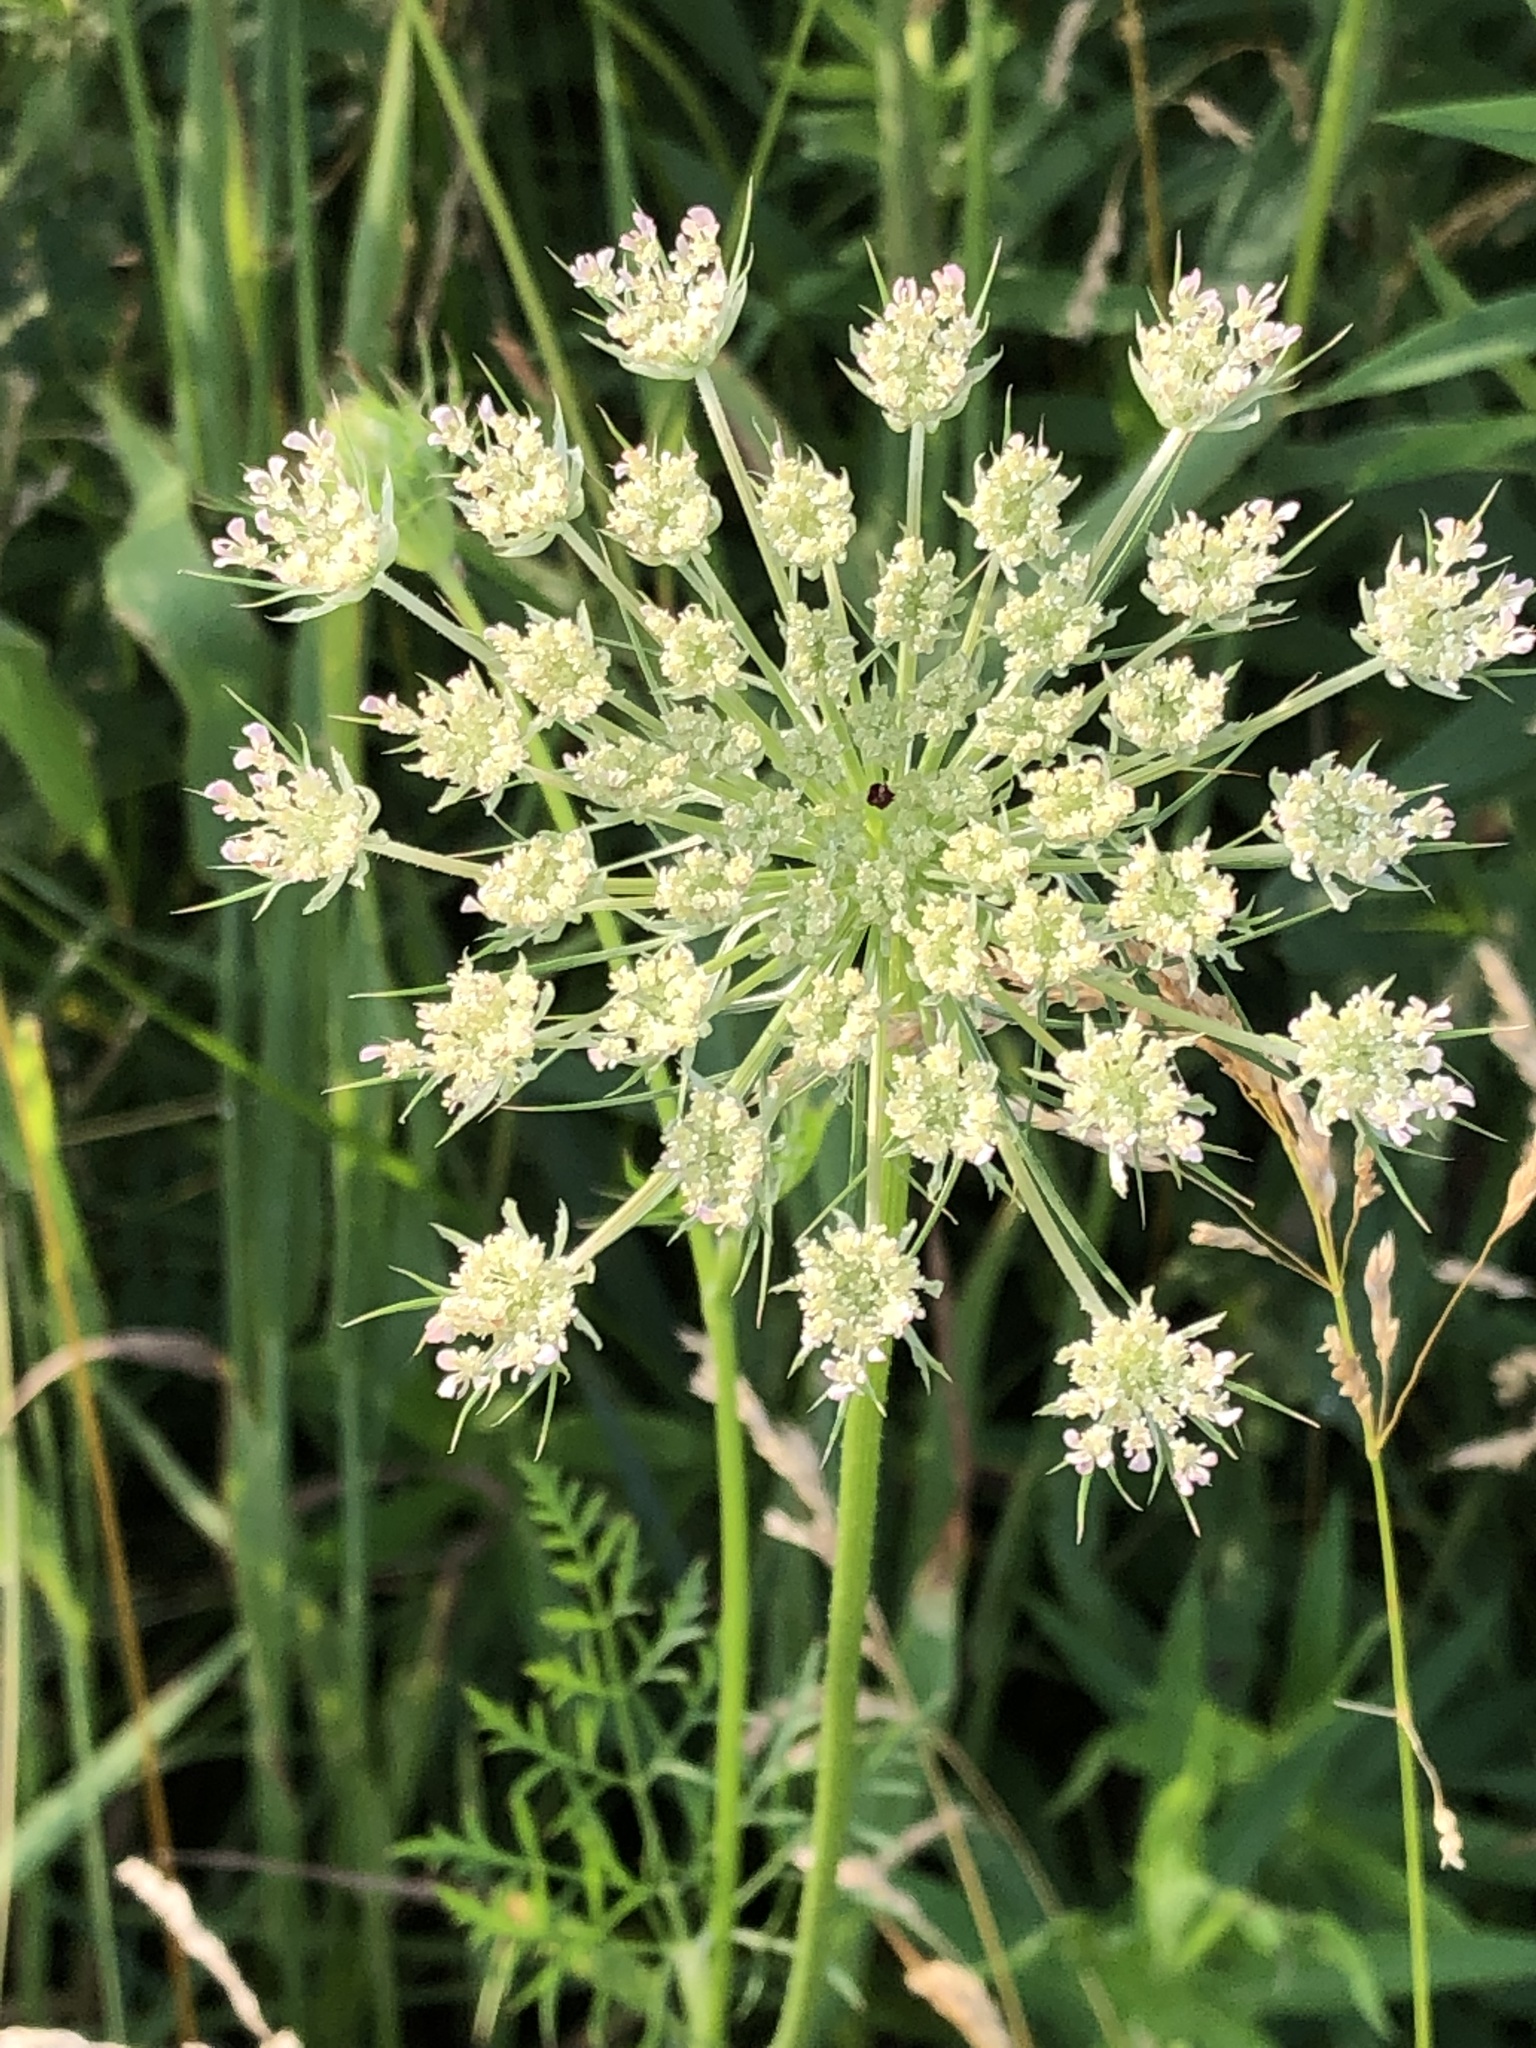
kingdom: Plantae
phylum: Tracheophyta
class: Magnoliopsida
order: Apiales
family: Apiaceae
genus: Daucus
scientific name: Daucus carota
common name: Wild carrot
